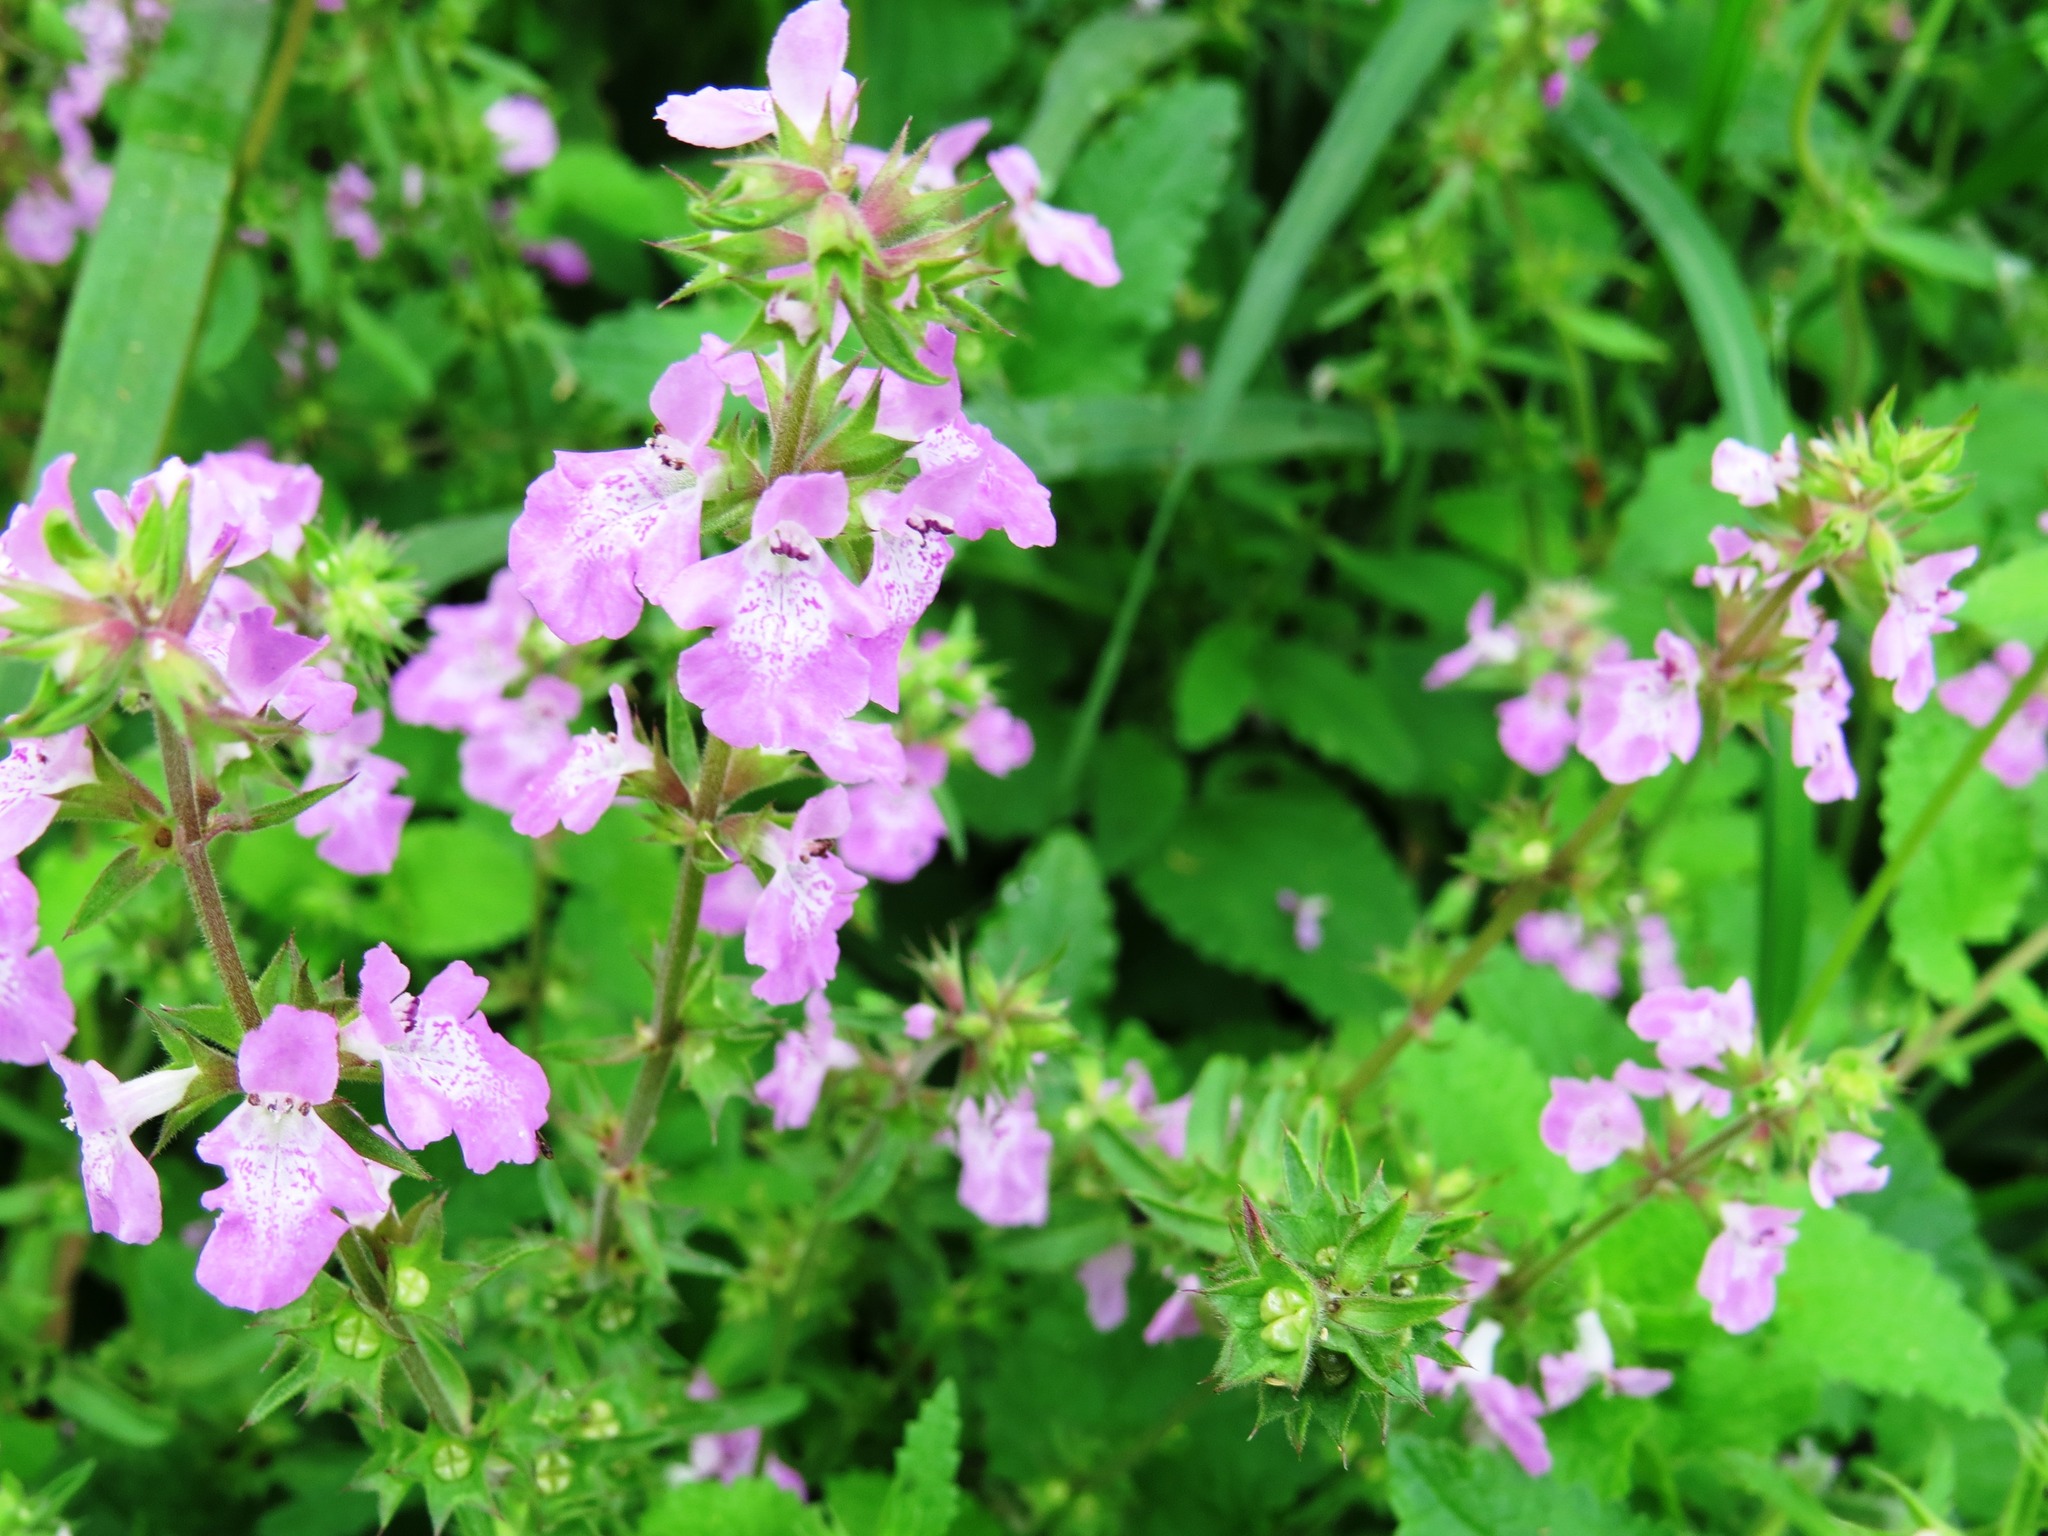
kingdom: Plantae
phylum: Tracheophyta
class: Magnoliopsida
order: Lamiales
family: Lamiaceae
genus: Stachys
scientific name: Stachys drummondii
